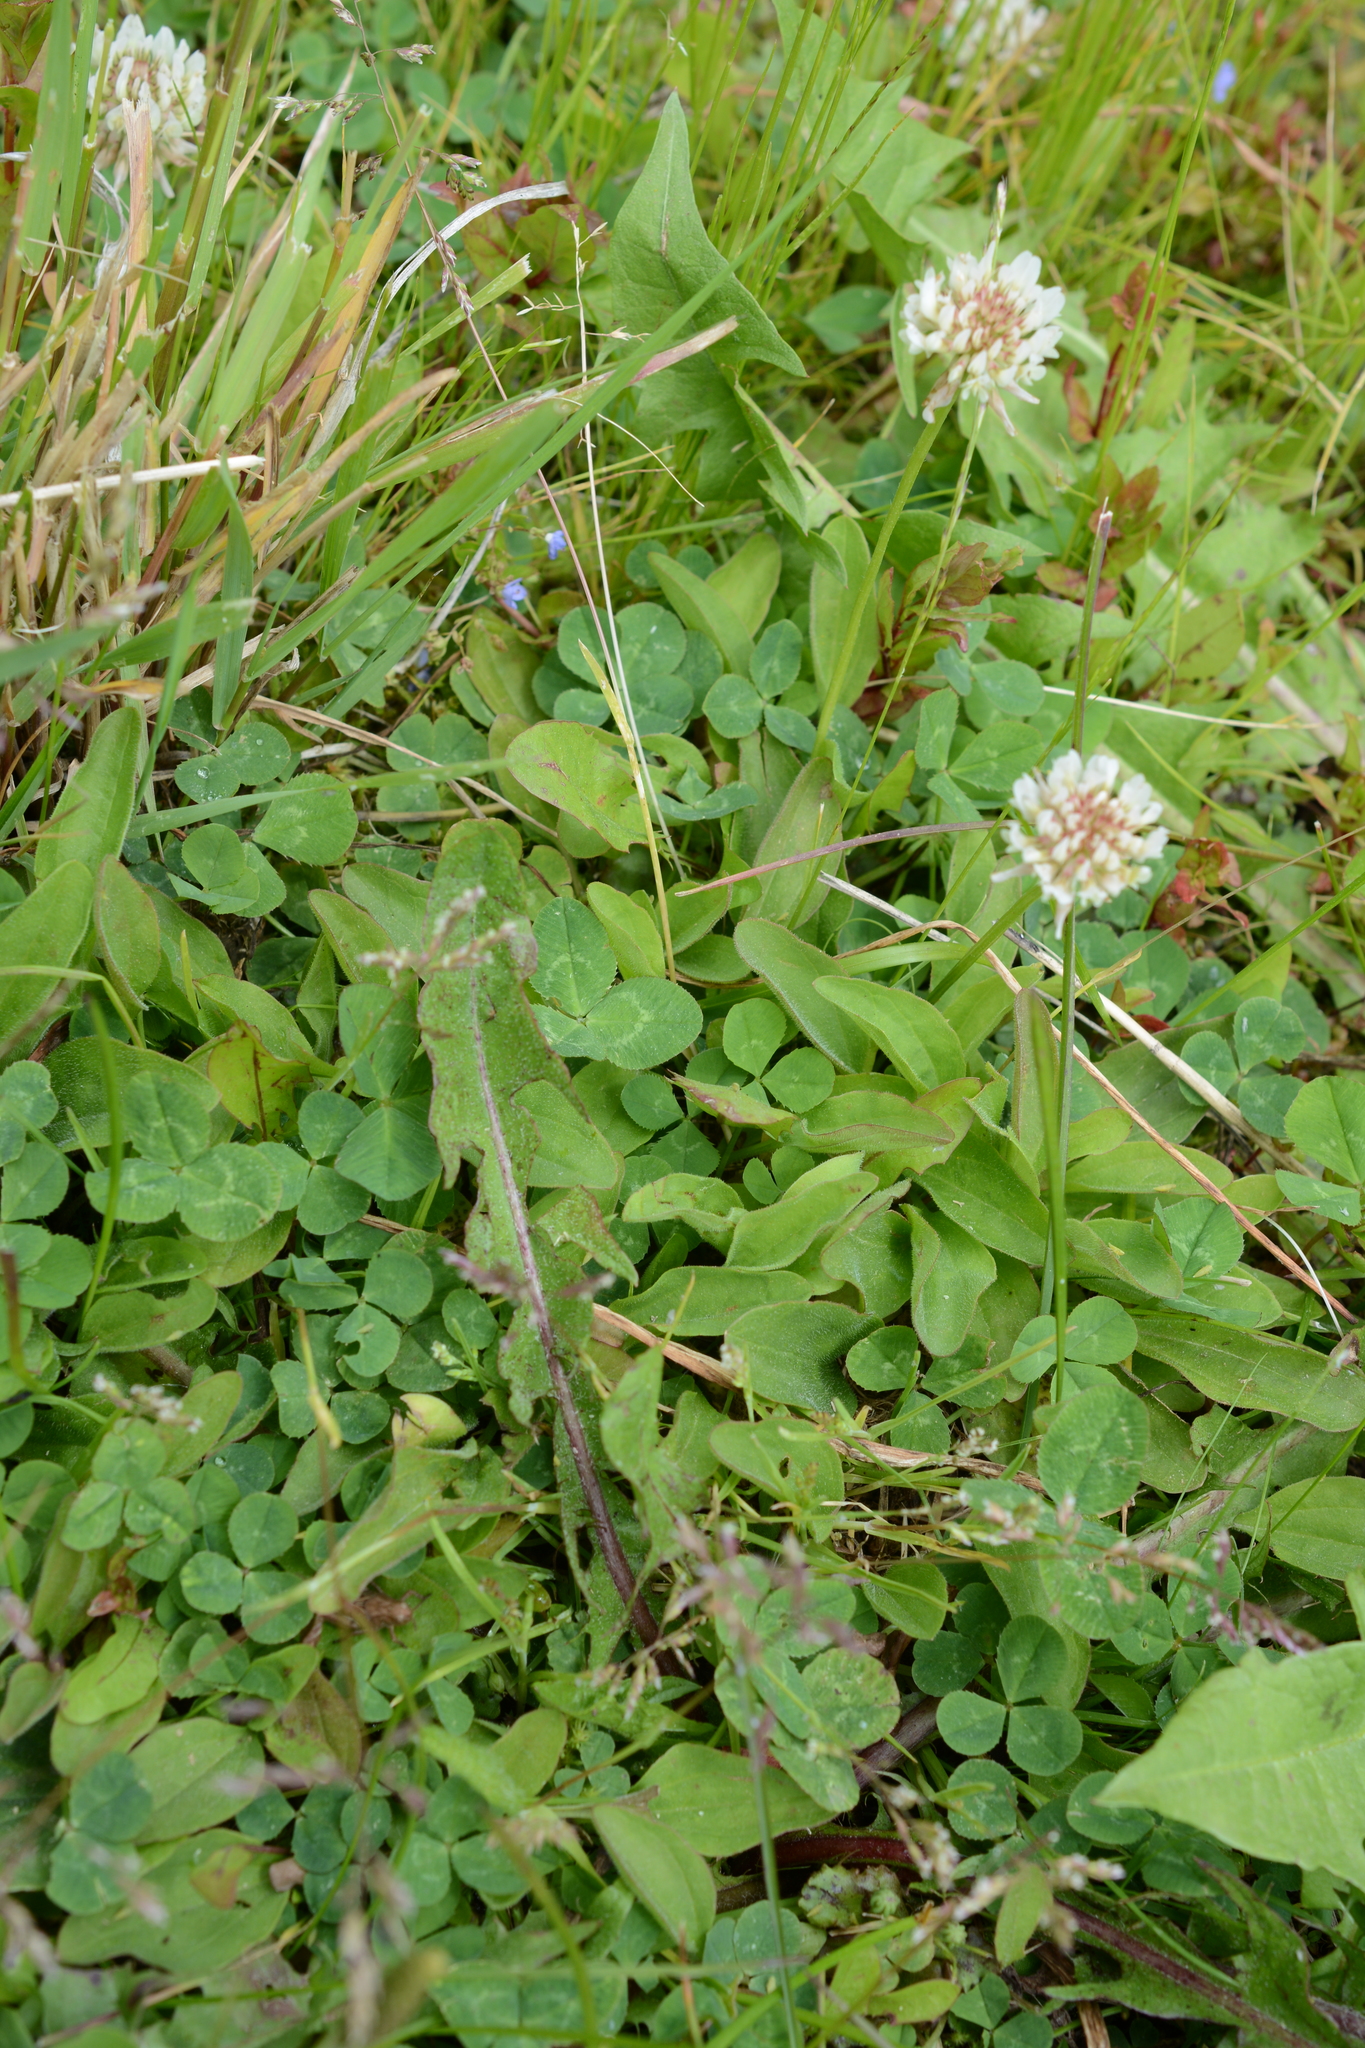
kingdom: Plantae
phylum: Tracheophyta
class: Magnoliopsida
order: Fabales
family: Fabaceae
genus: Trifolium
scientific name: Trifolium repens
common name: White clover
